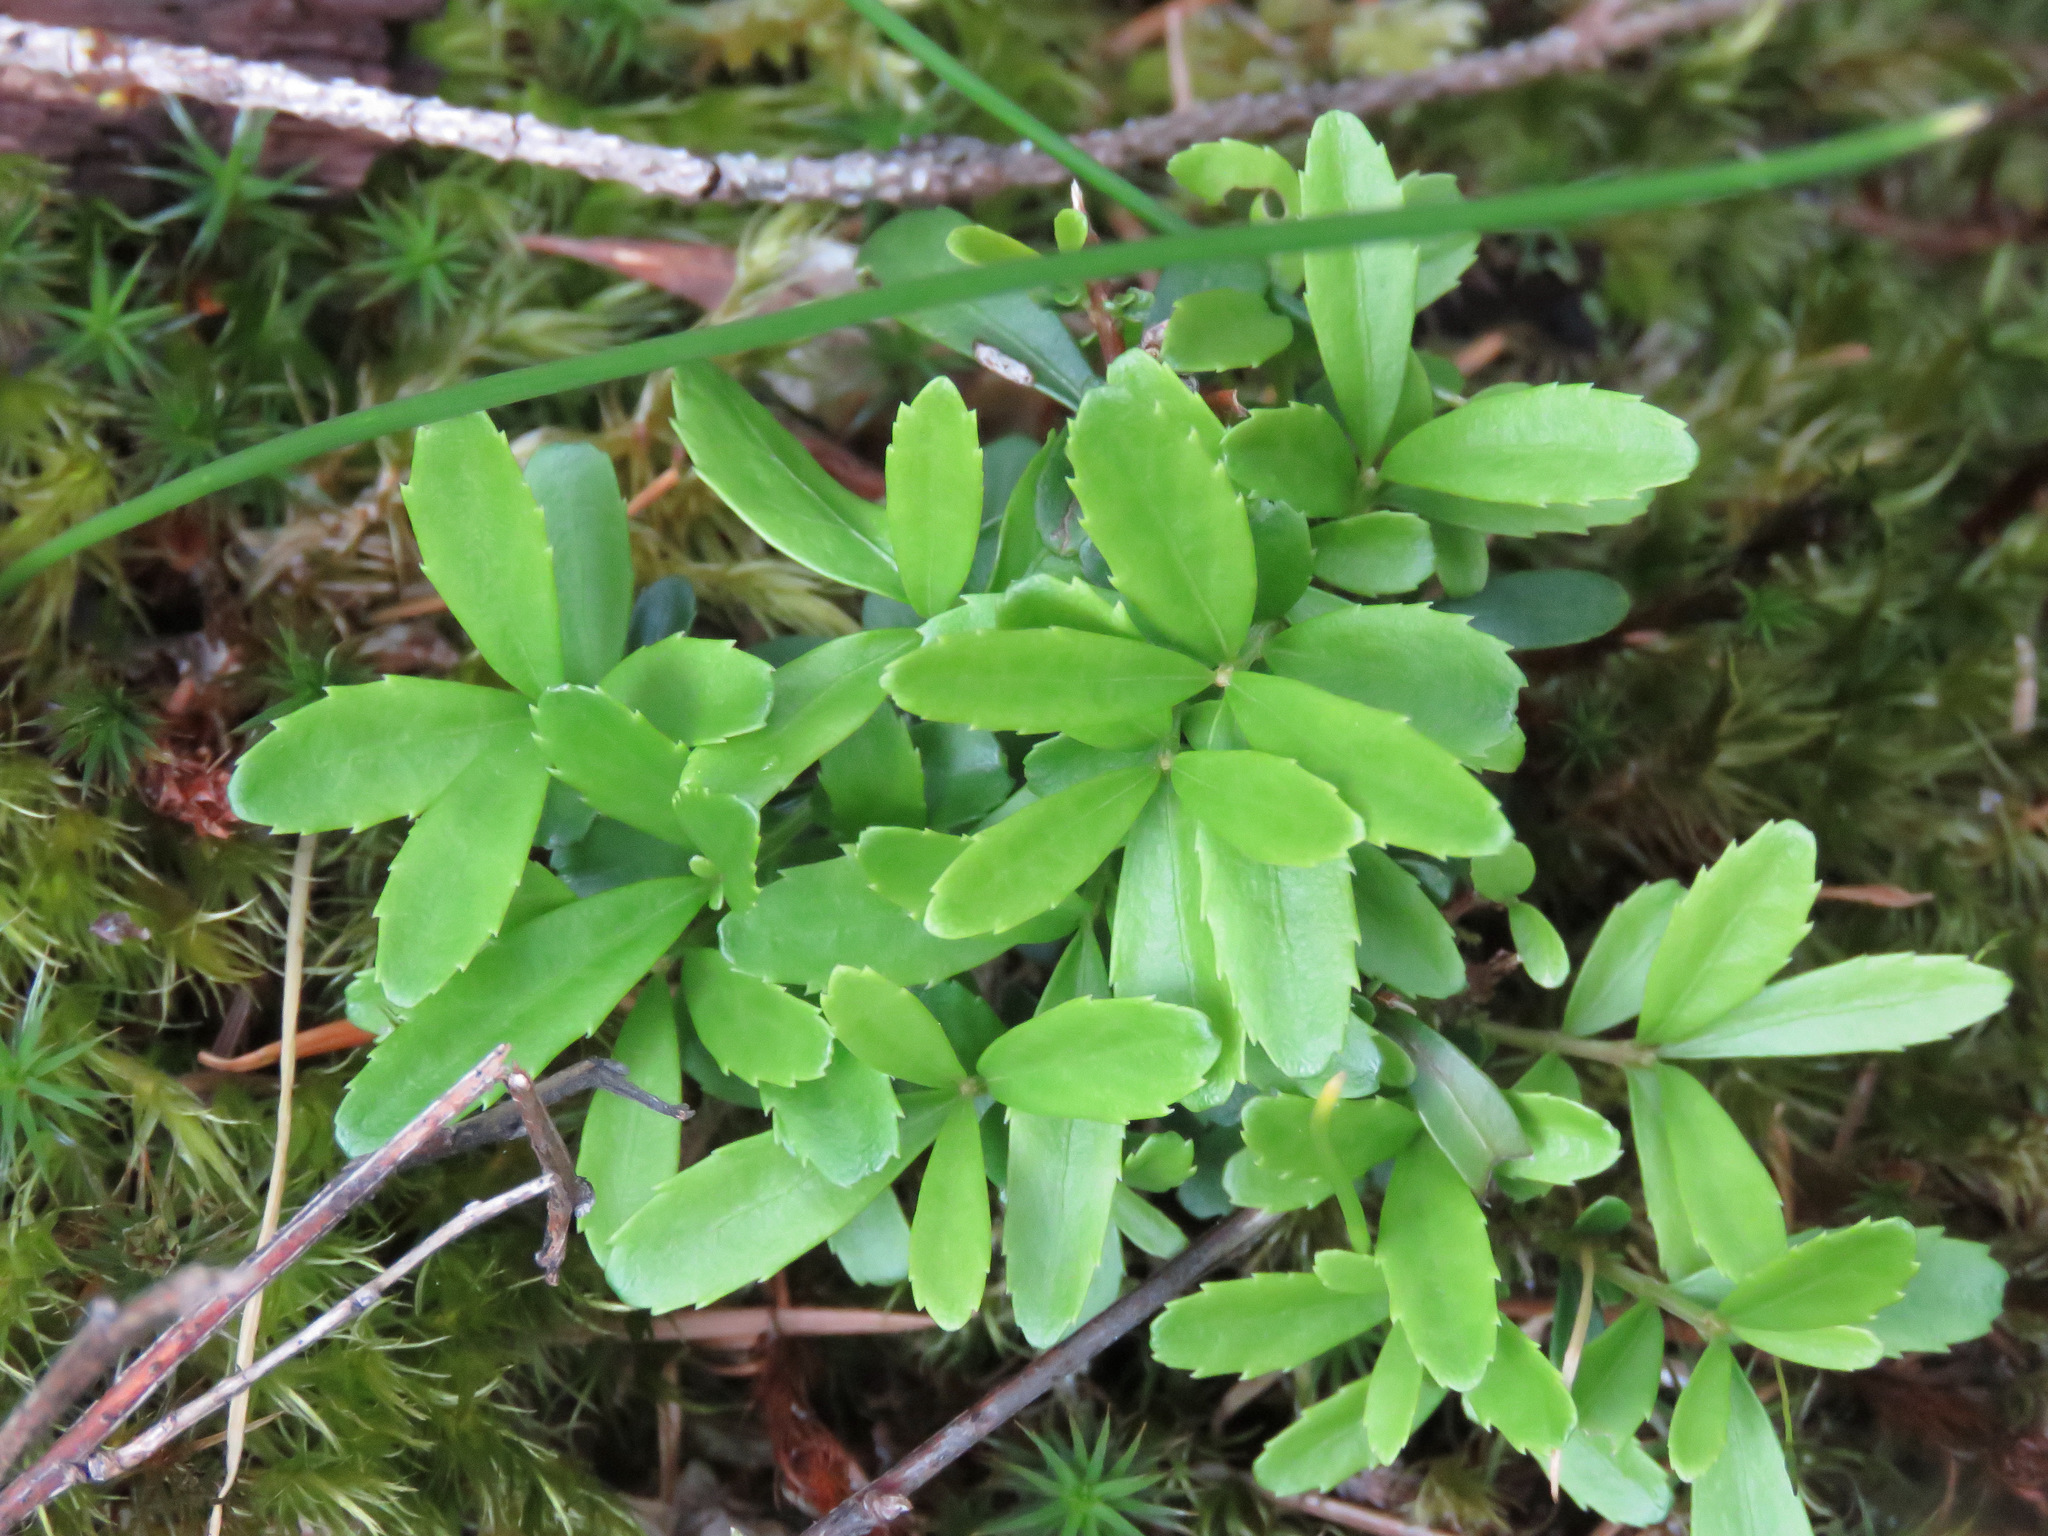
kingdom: Plantae
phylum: Tracheophyta
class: Magnoliopsida
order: Celastrales
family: Celastraceae
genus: Paxistima
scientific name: Paxistima myrsinites
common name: Mountain-lover
